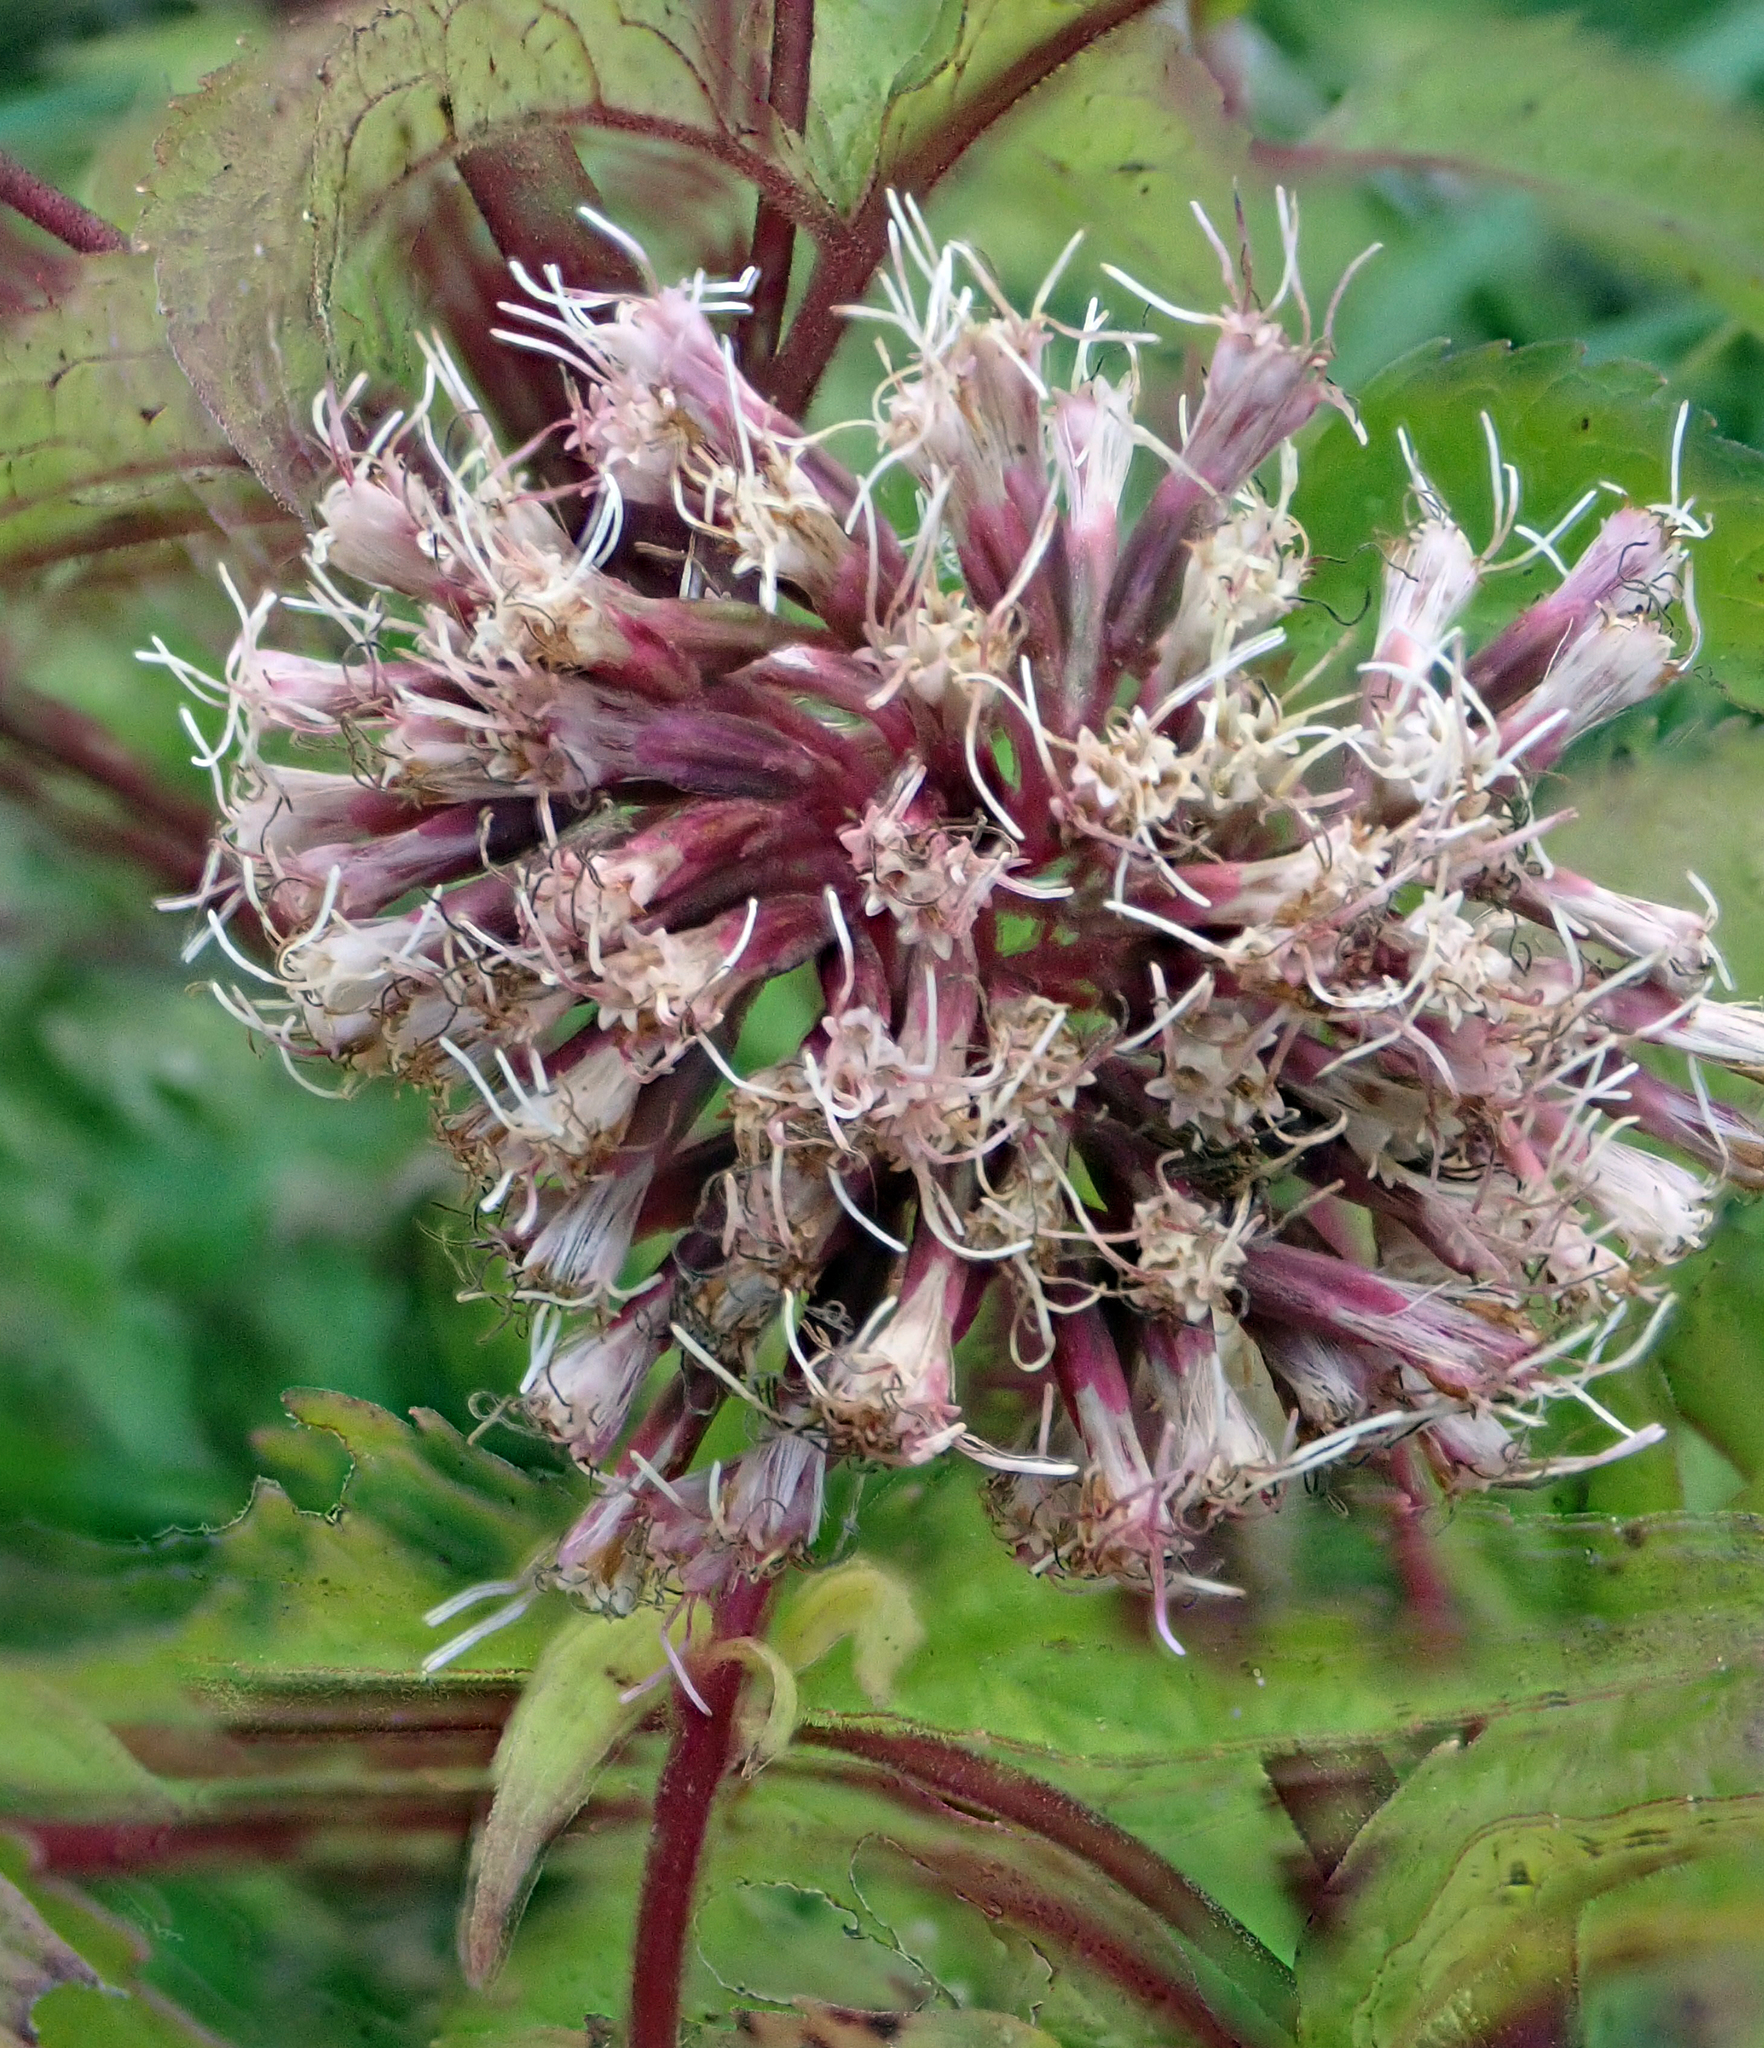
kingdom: Plantae
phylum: Tracheophyta
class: Magnoliopsida
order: Asterales
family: Asteraceae
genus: Eupatorium
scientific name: Eupatorium cannabinum
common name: Hemp-agrimony
